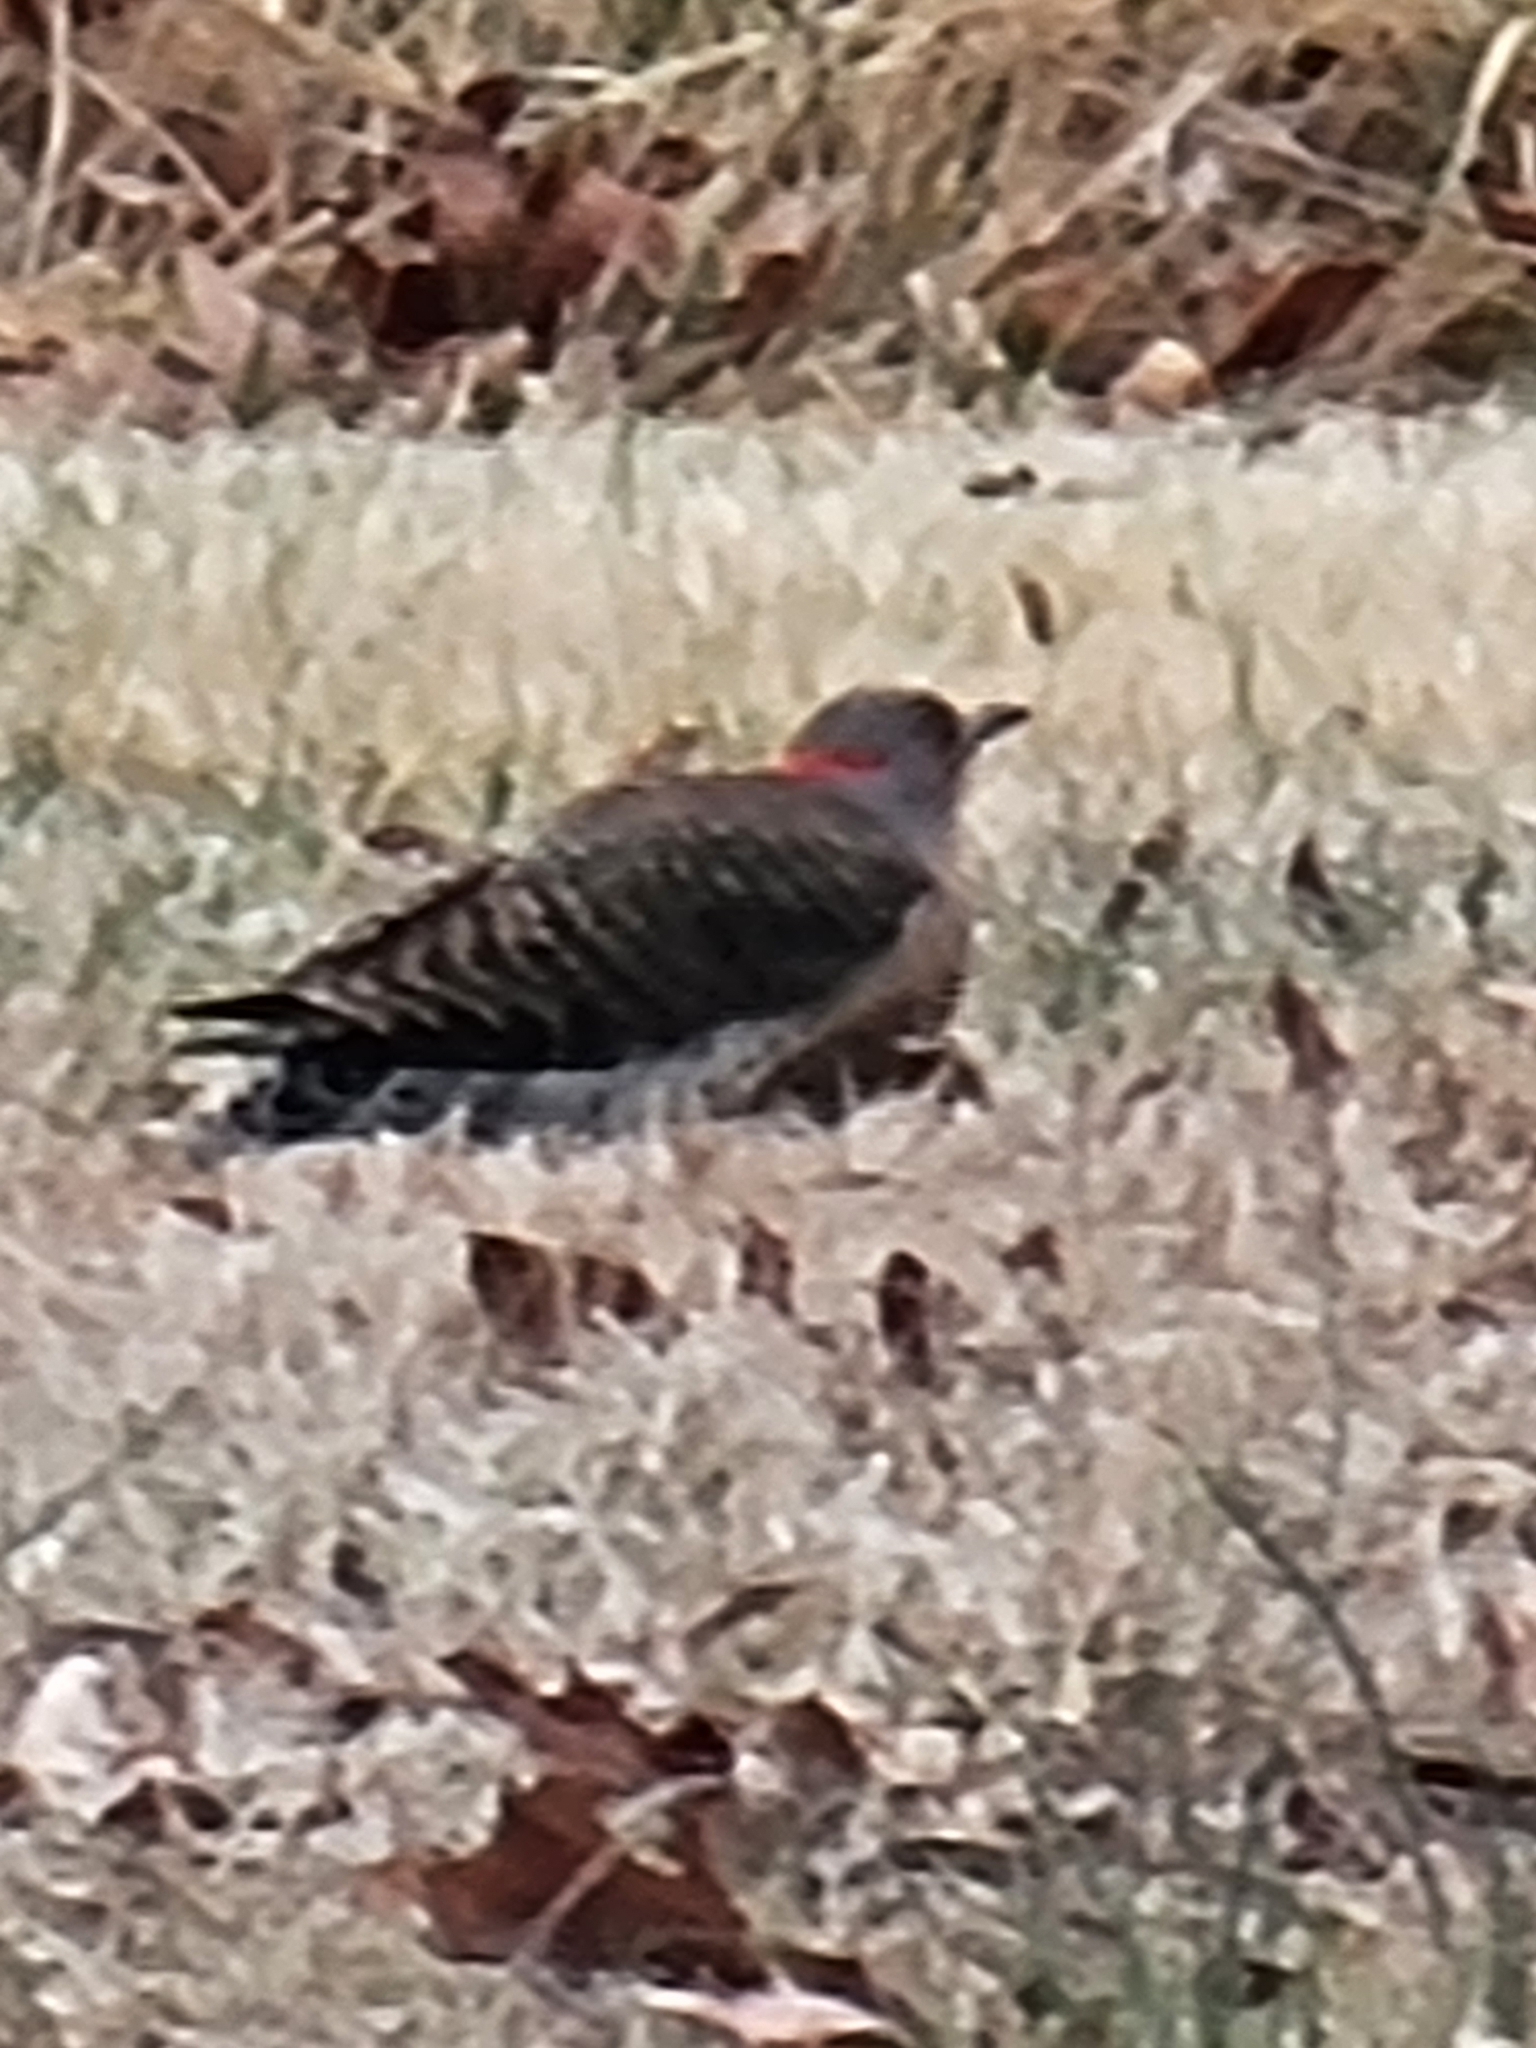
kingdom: Animalia
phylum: Chordata
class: Aves
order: Piciformes
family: Picidae
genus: Colaptes
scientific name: Colaptes auratus
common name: Northern flicker
